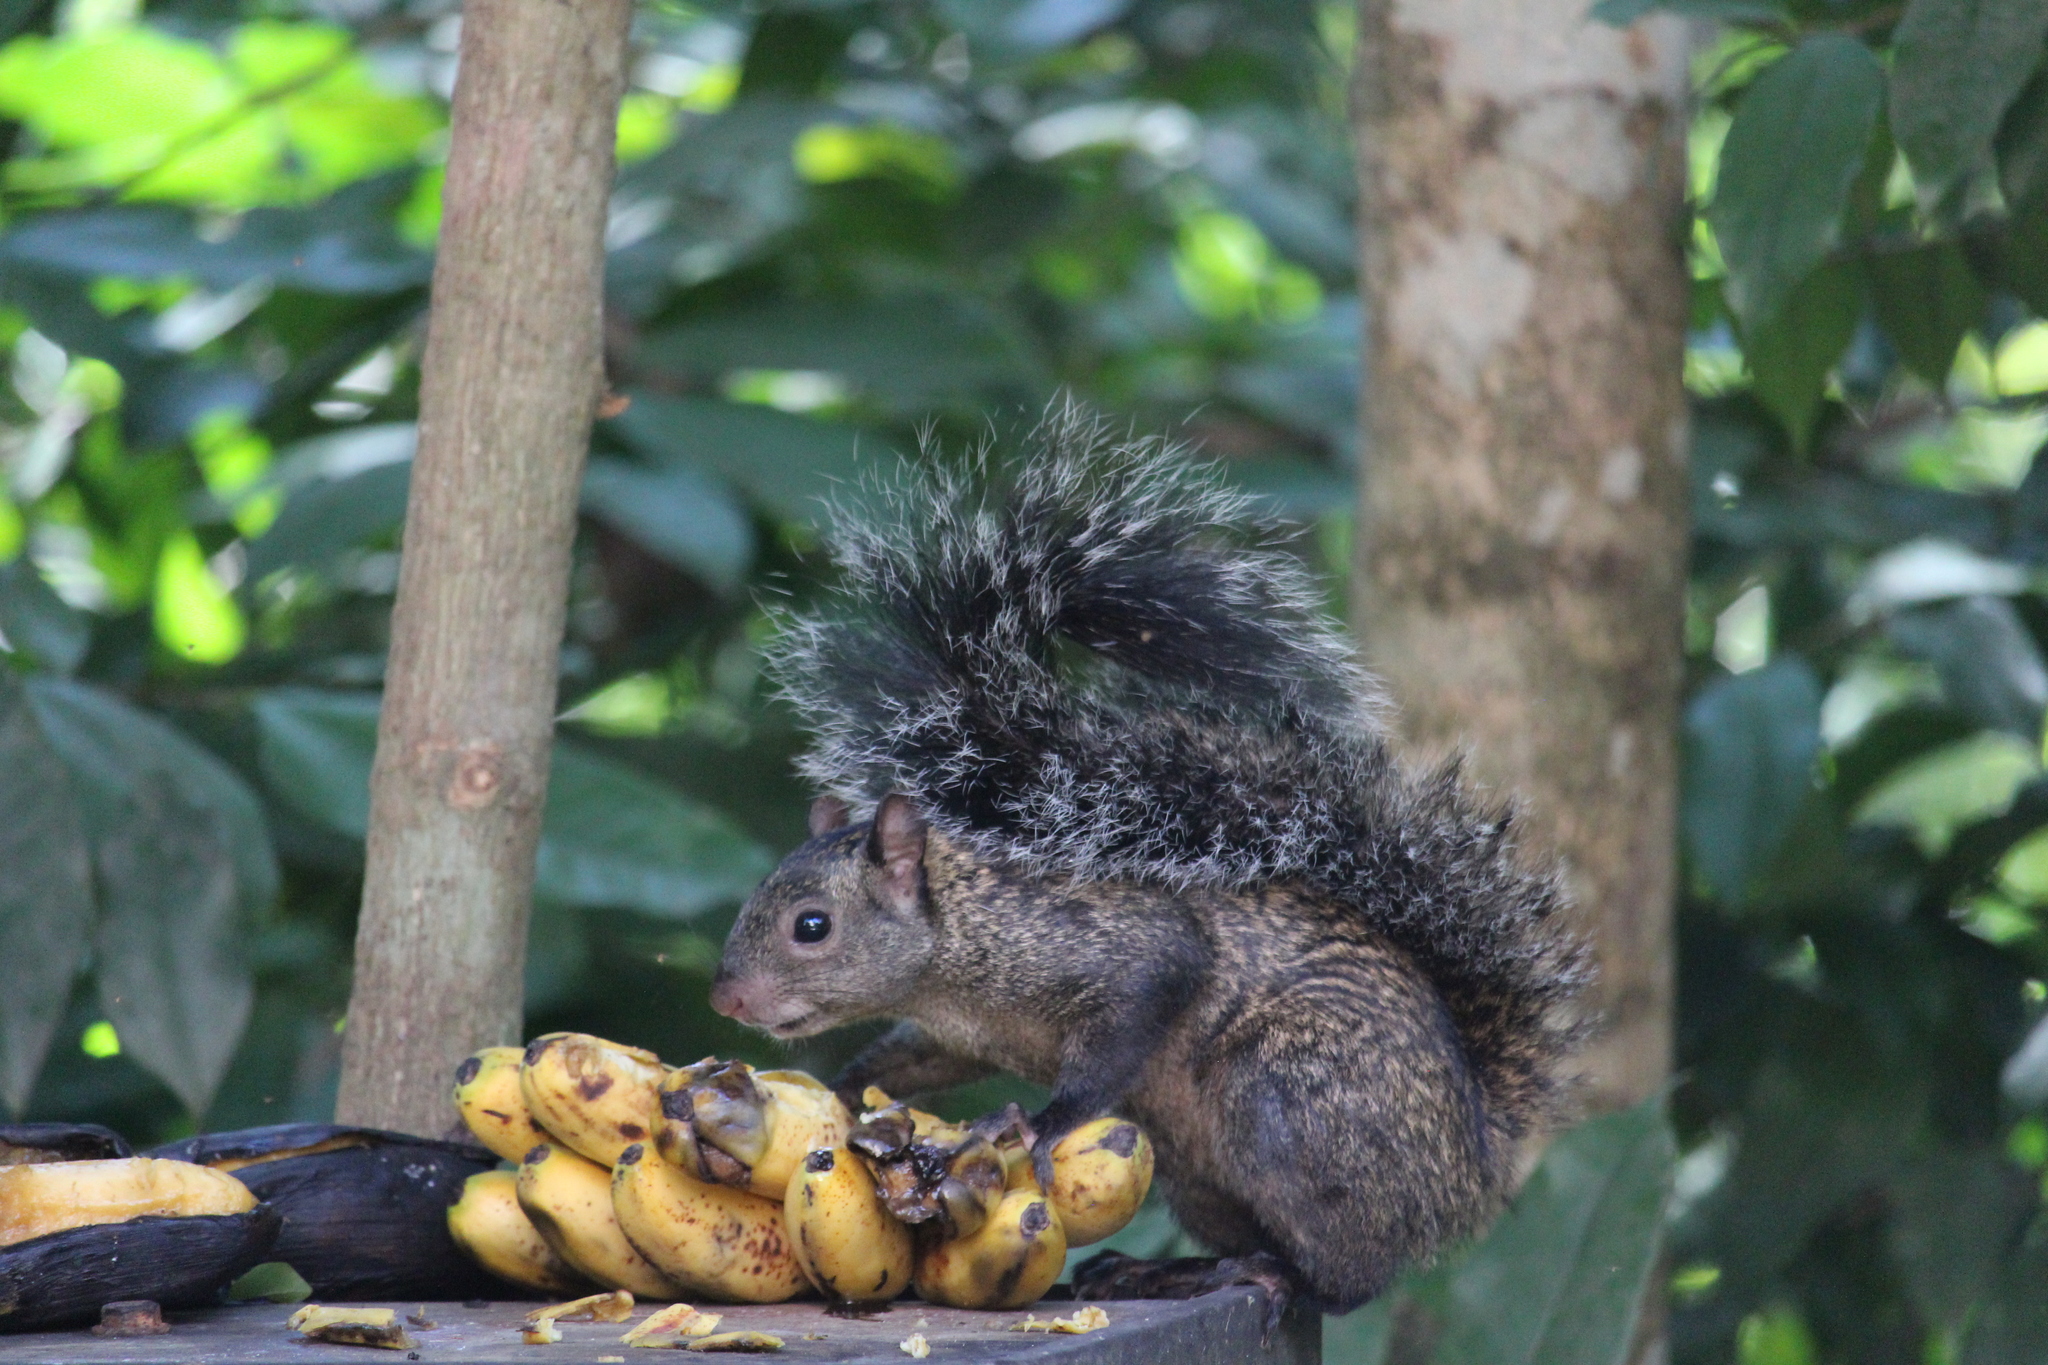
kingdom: Animalia
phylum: Chordata
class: Mammalia
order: Rodentia
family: Sciuridae
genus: Sciurus
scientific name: Sciurus yucatanensis
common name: Yucatan squirrel
